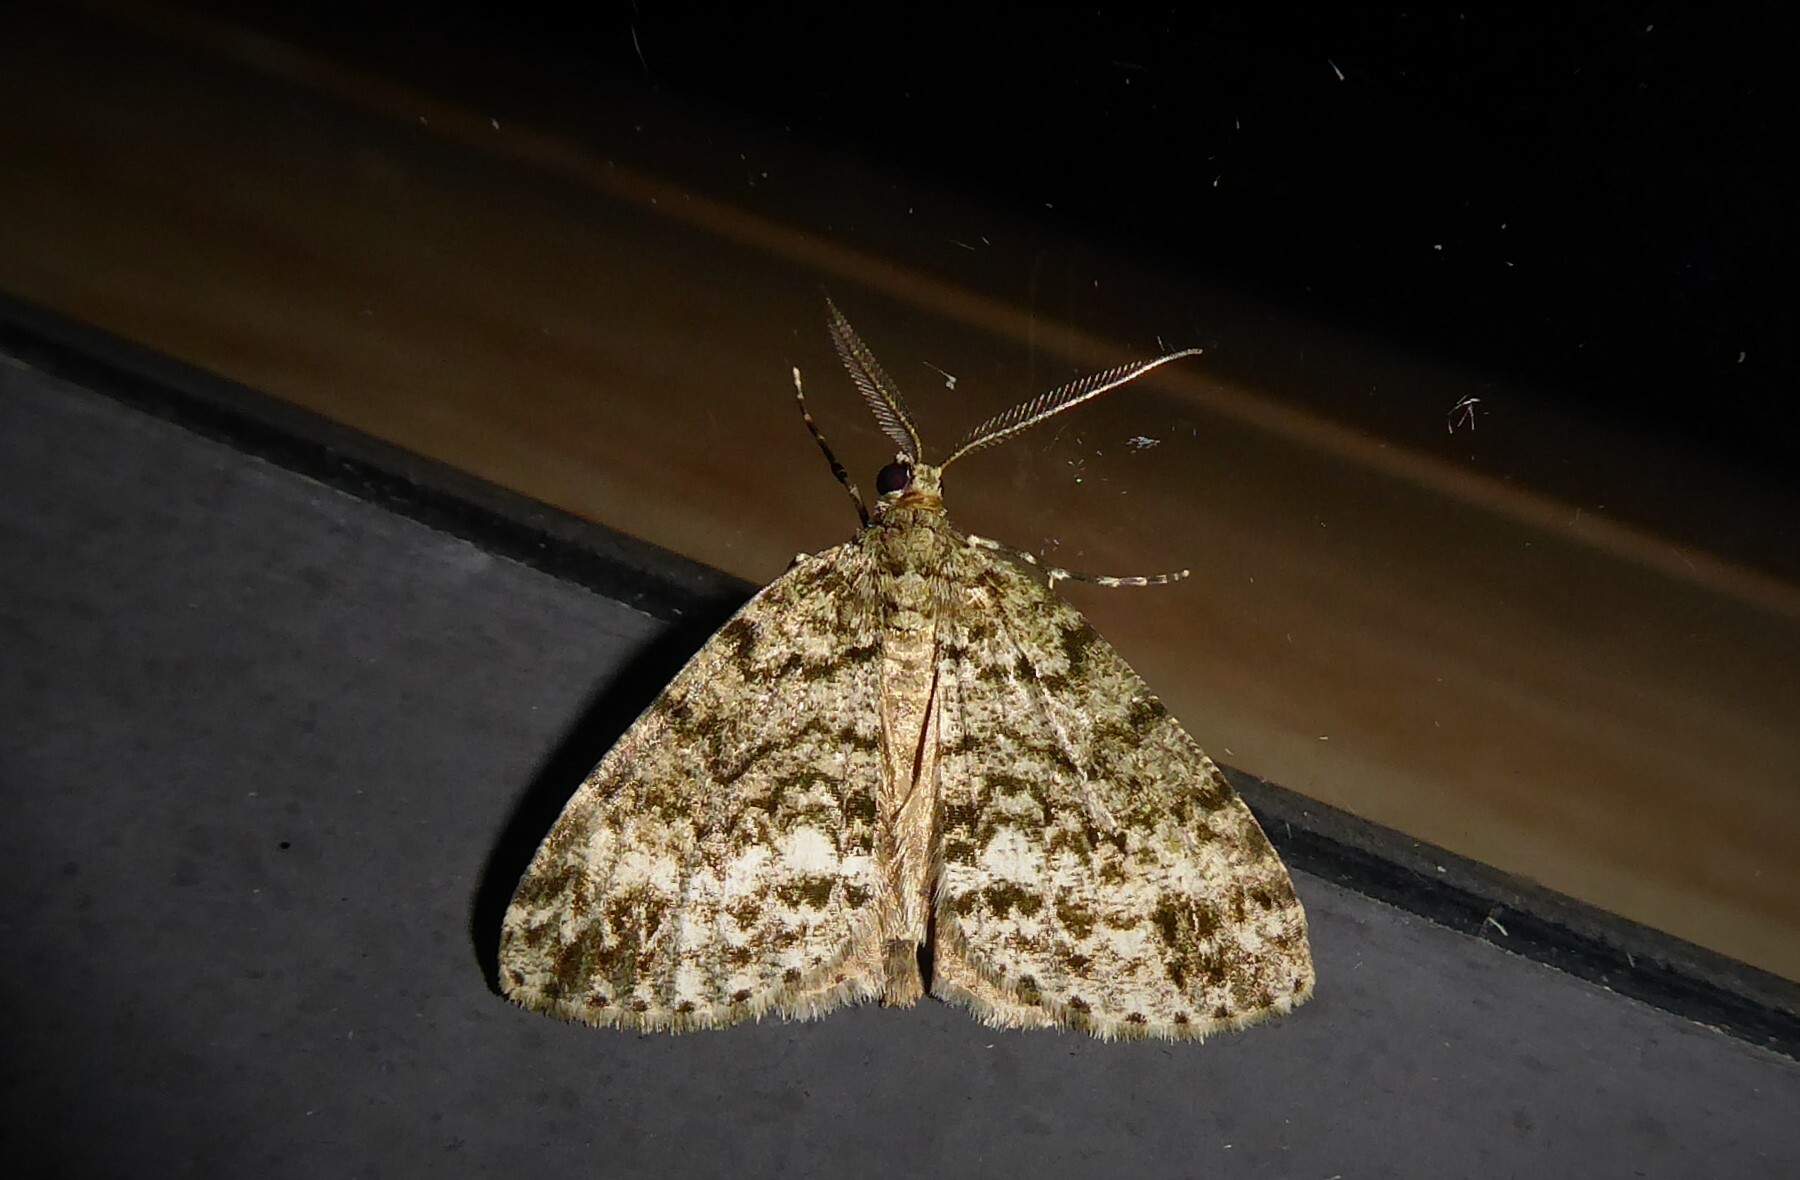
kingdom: Animalia
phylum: Arthropoda
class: Insecta
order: Lepidoptera
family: Geometridae
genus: Pseudocoremia
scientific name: Pseudocoremia indistincta
